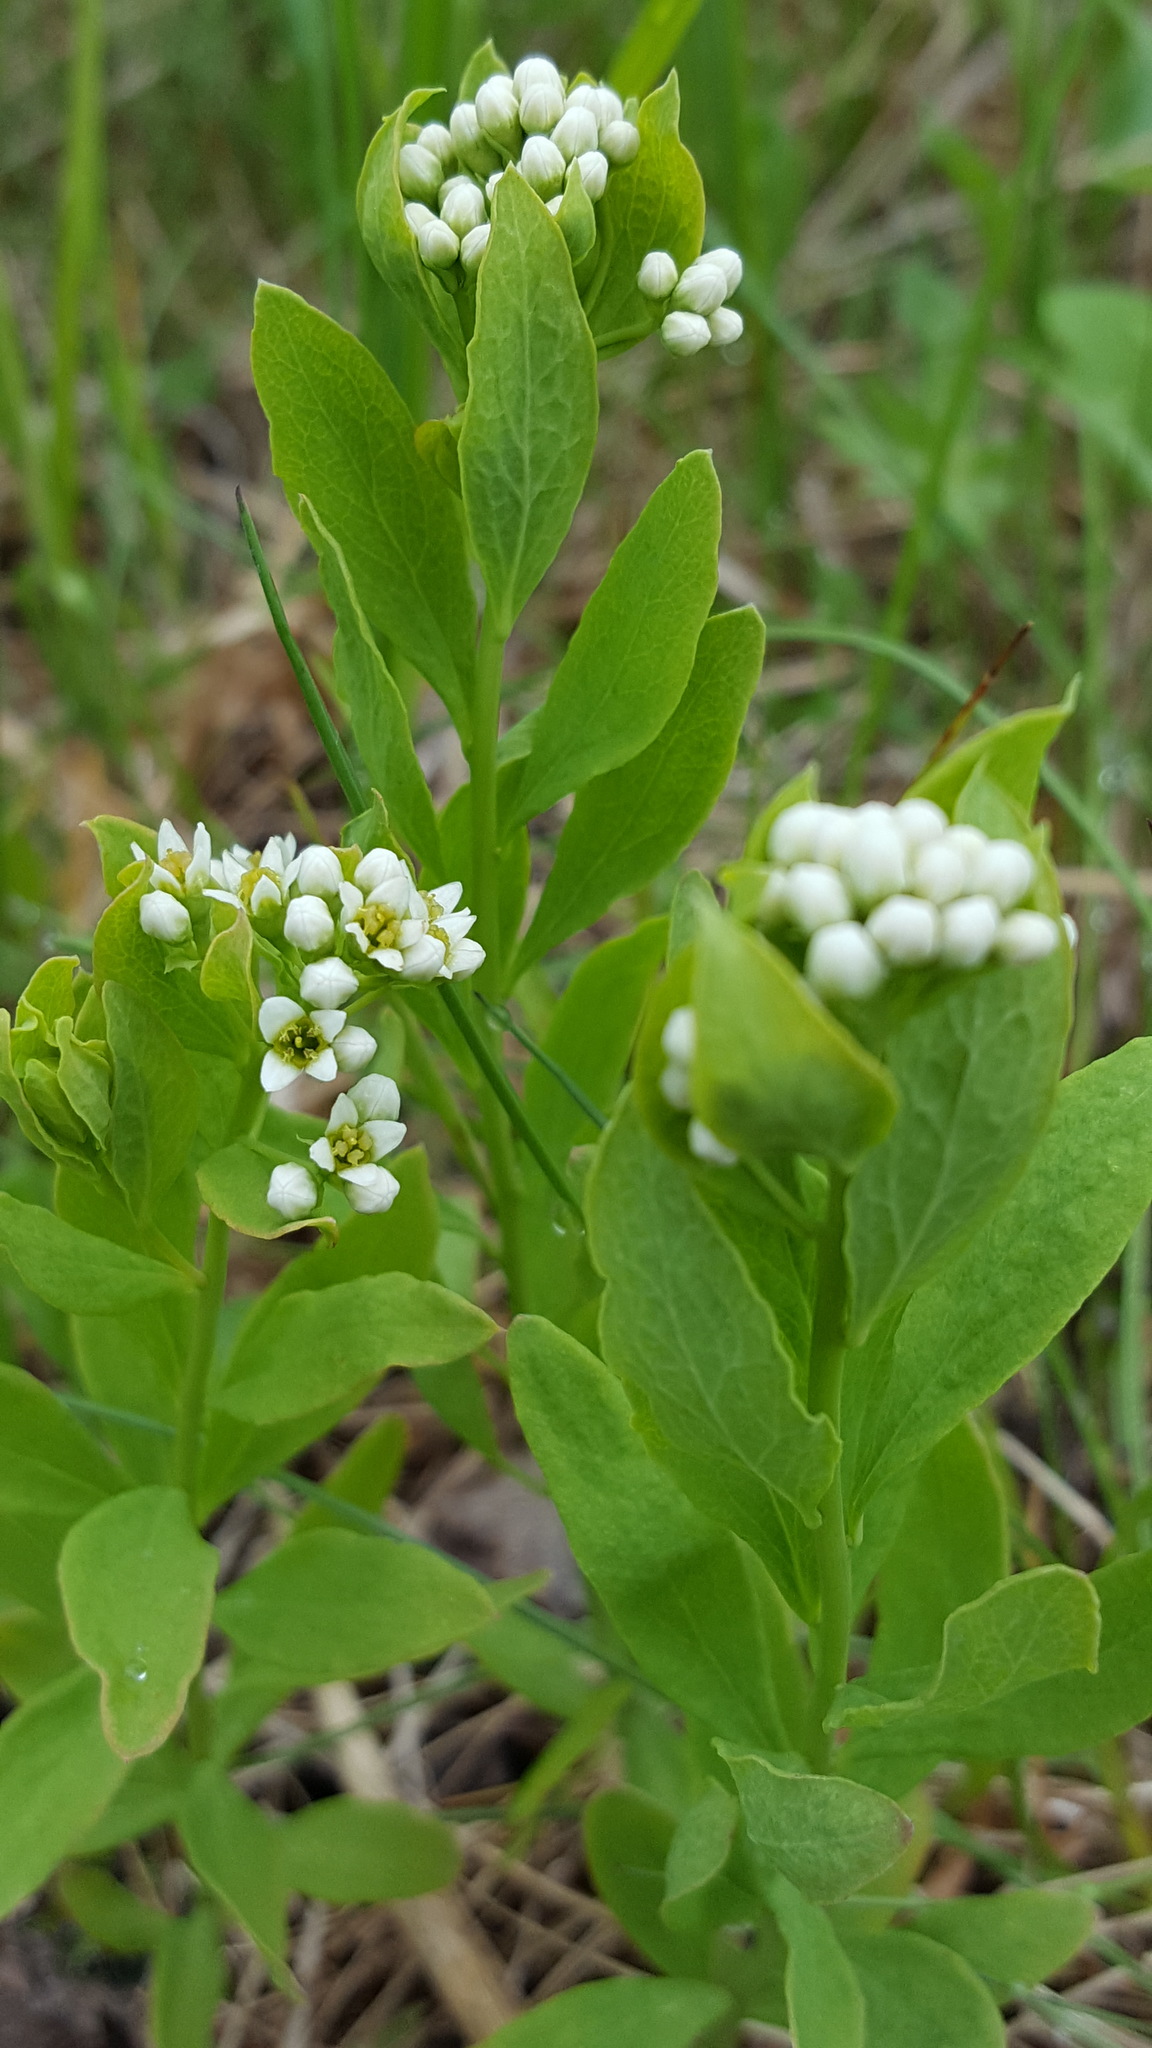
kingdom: Plantae
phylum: Tracheophyta
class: Magnoliopsida
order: Santalales
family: Comandraceae
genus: Comandra
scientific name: Comandra umbellata
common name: Bastard toadflax
